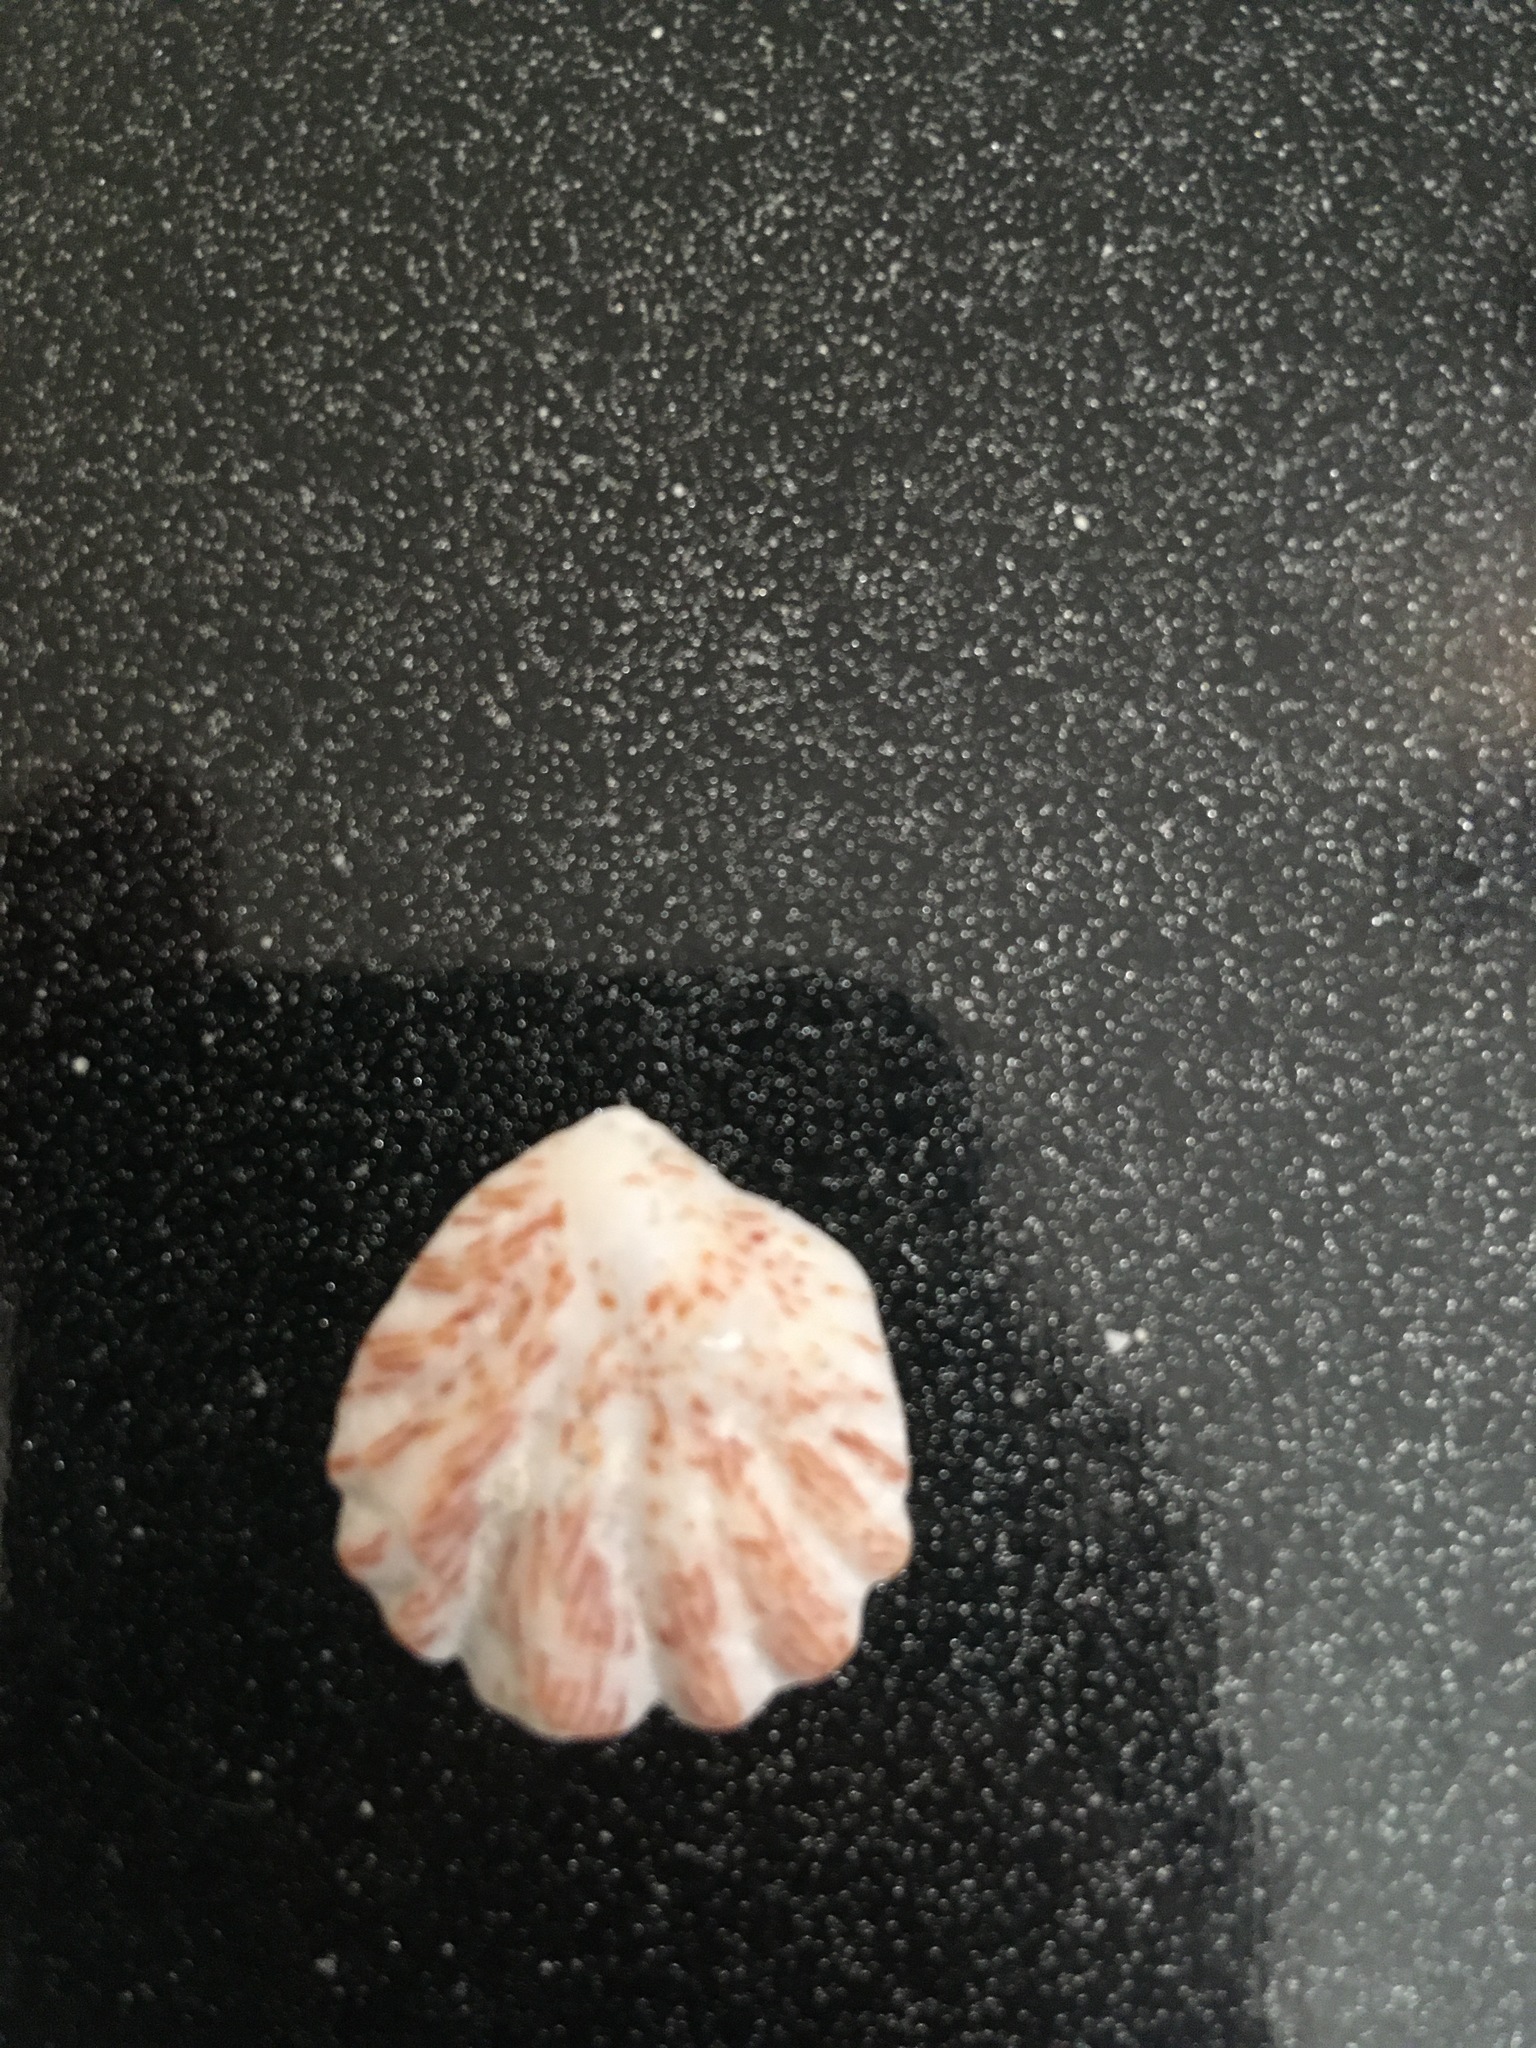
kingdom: Animalia
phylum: Mollusca
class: Bivalvia
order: Pectinida
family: Plicatulidae
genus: Plicatula
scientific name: Plicatula gibbosa
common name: Atlantic kitten's paw
